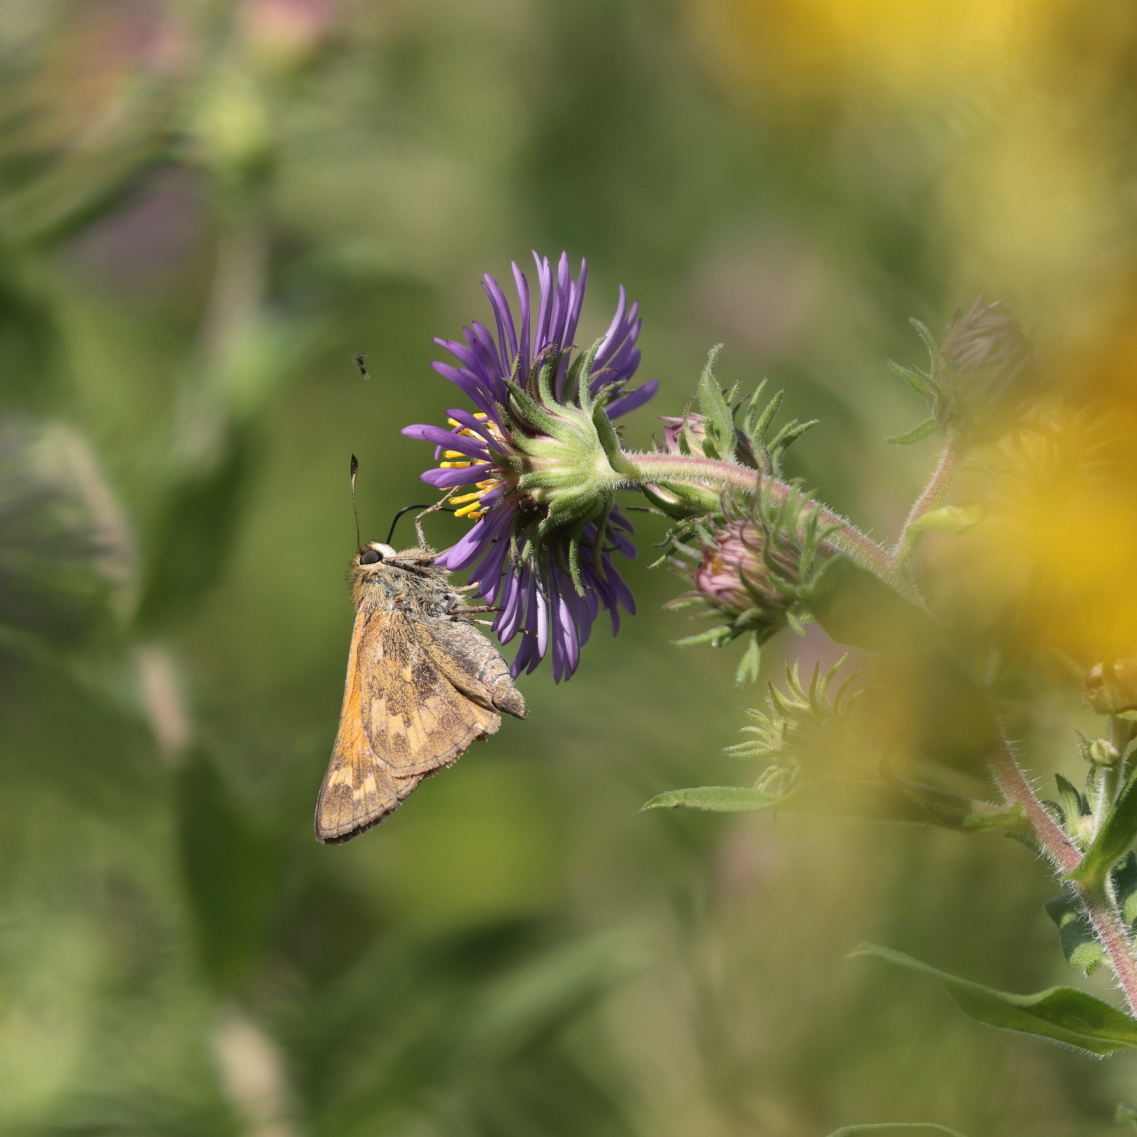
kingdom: Animalia
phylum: Arthropoda
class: Insecta
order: Lepidoptera
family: Hesperiidae
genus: Atalopedes
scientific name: Atalopedes
